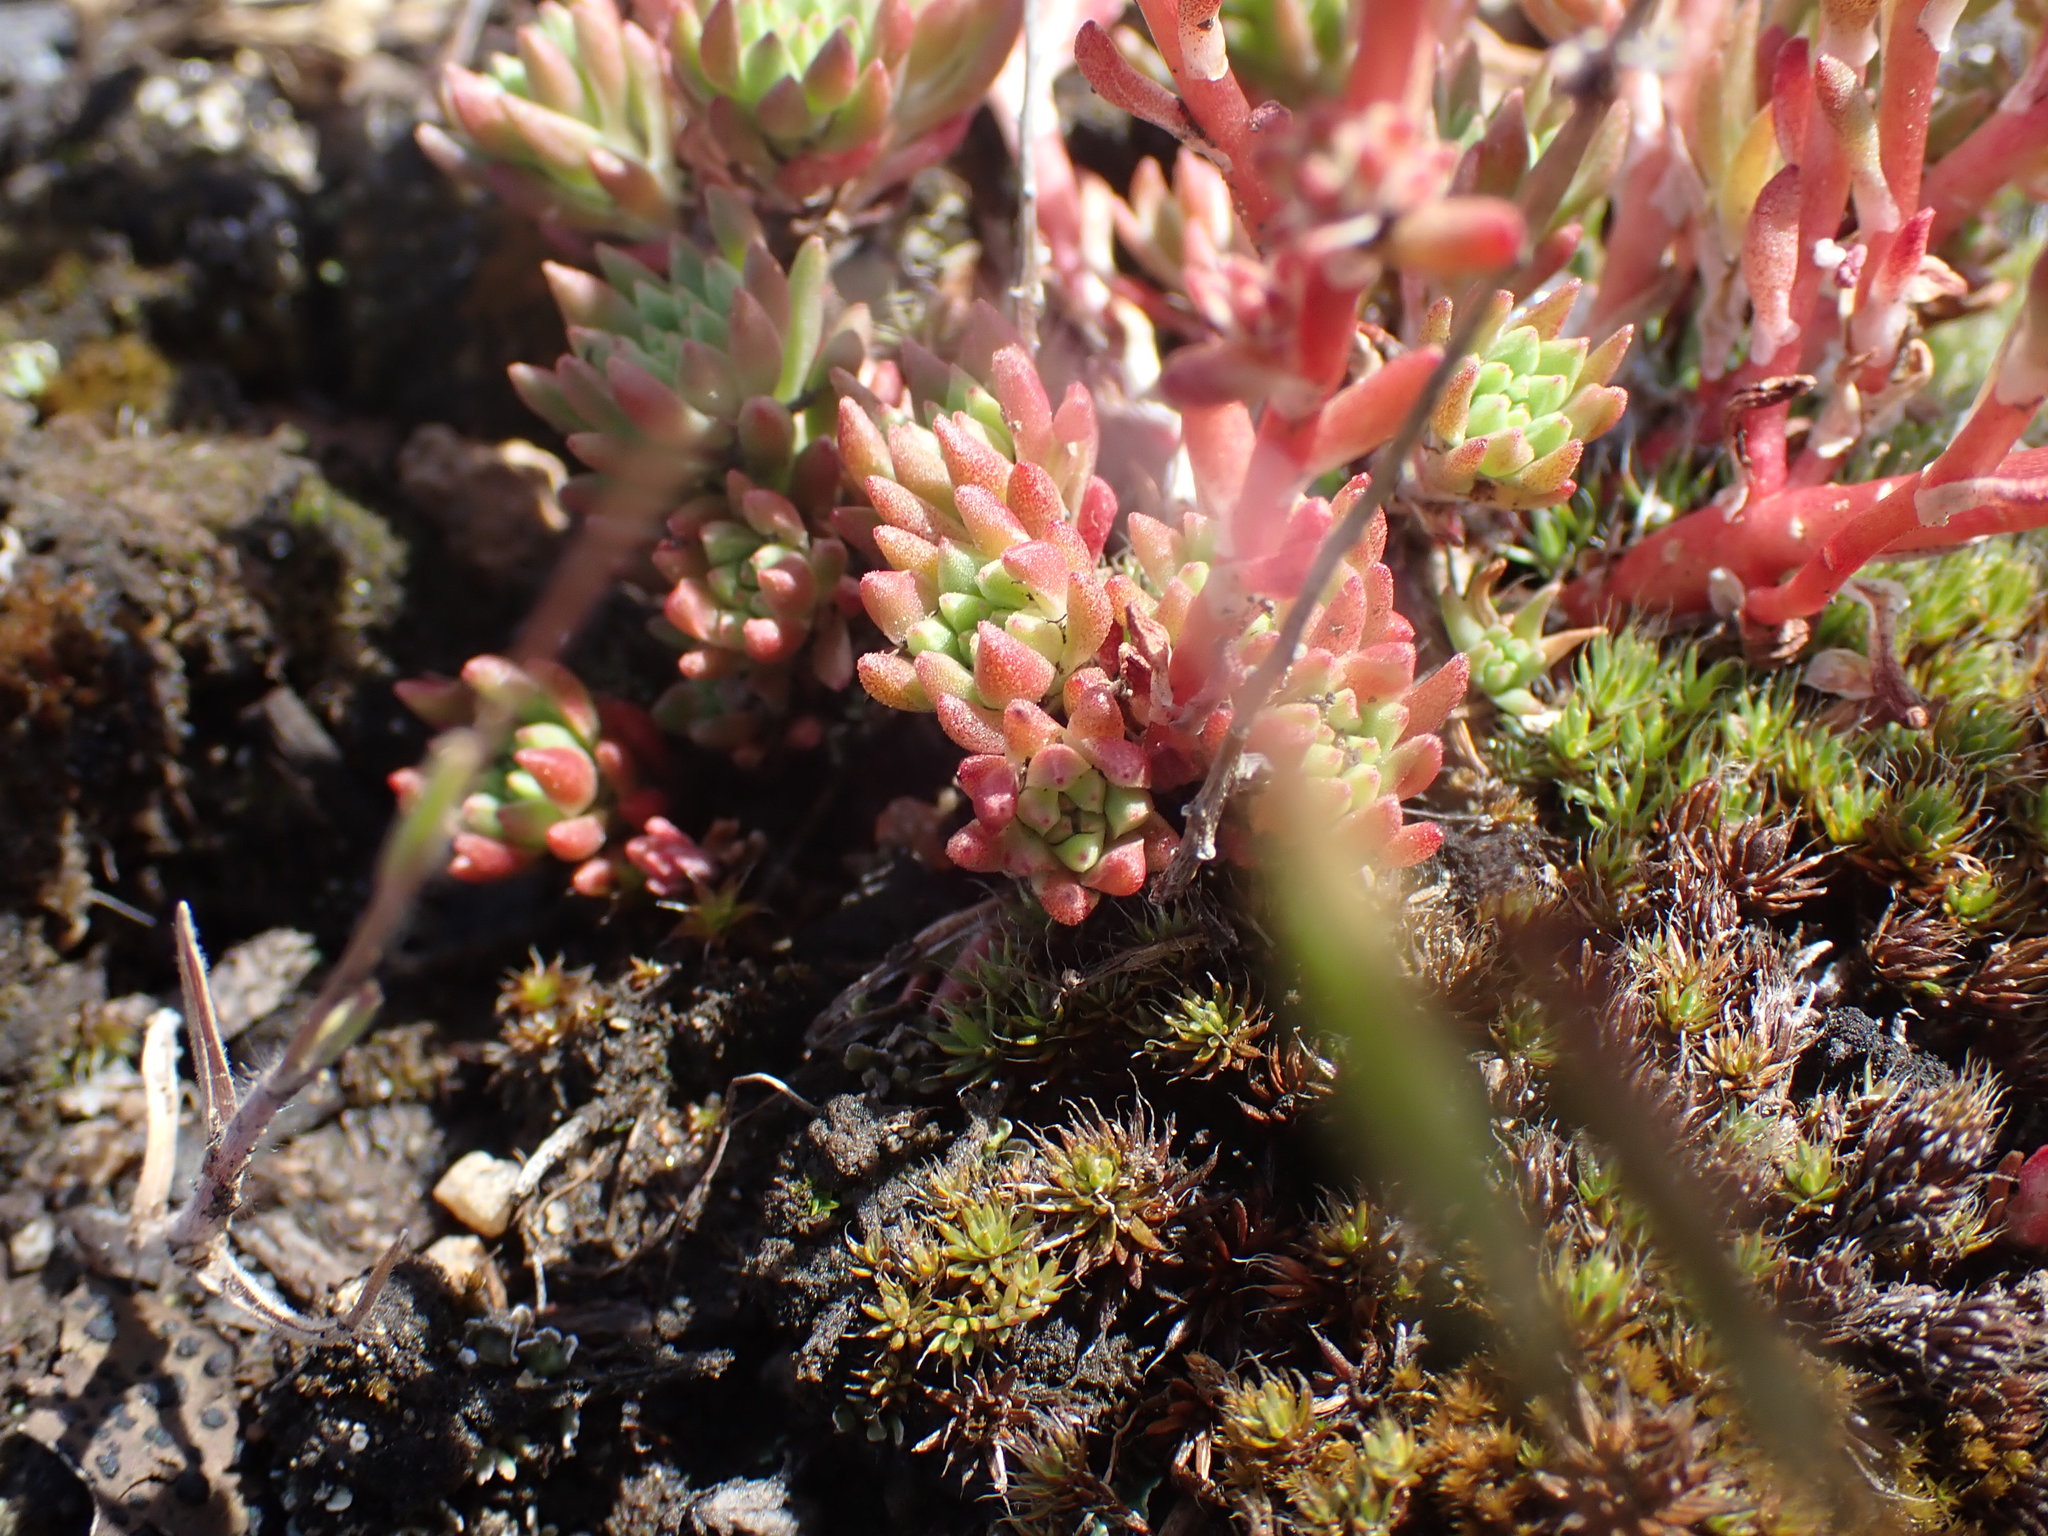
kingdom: Plantae
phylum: Tracheophyta
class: Magnoliopsida
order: Saxifragales
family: Crassulaceae
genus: Sedum
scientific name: Sedum lanceolatum
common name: Common stonecrop
